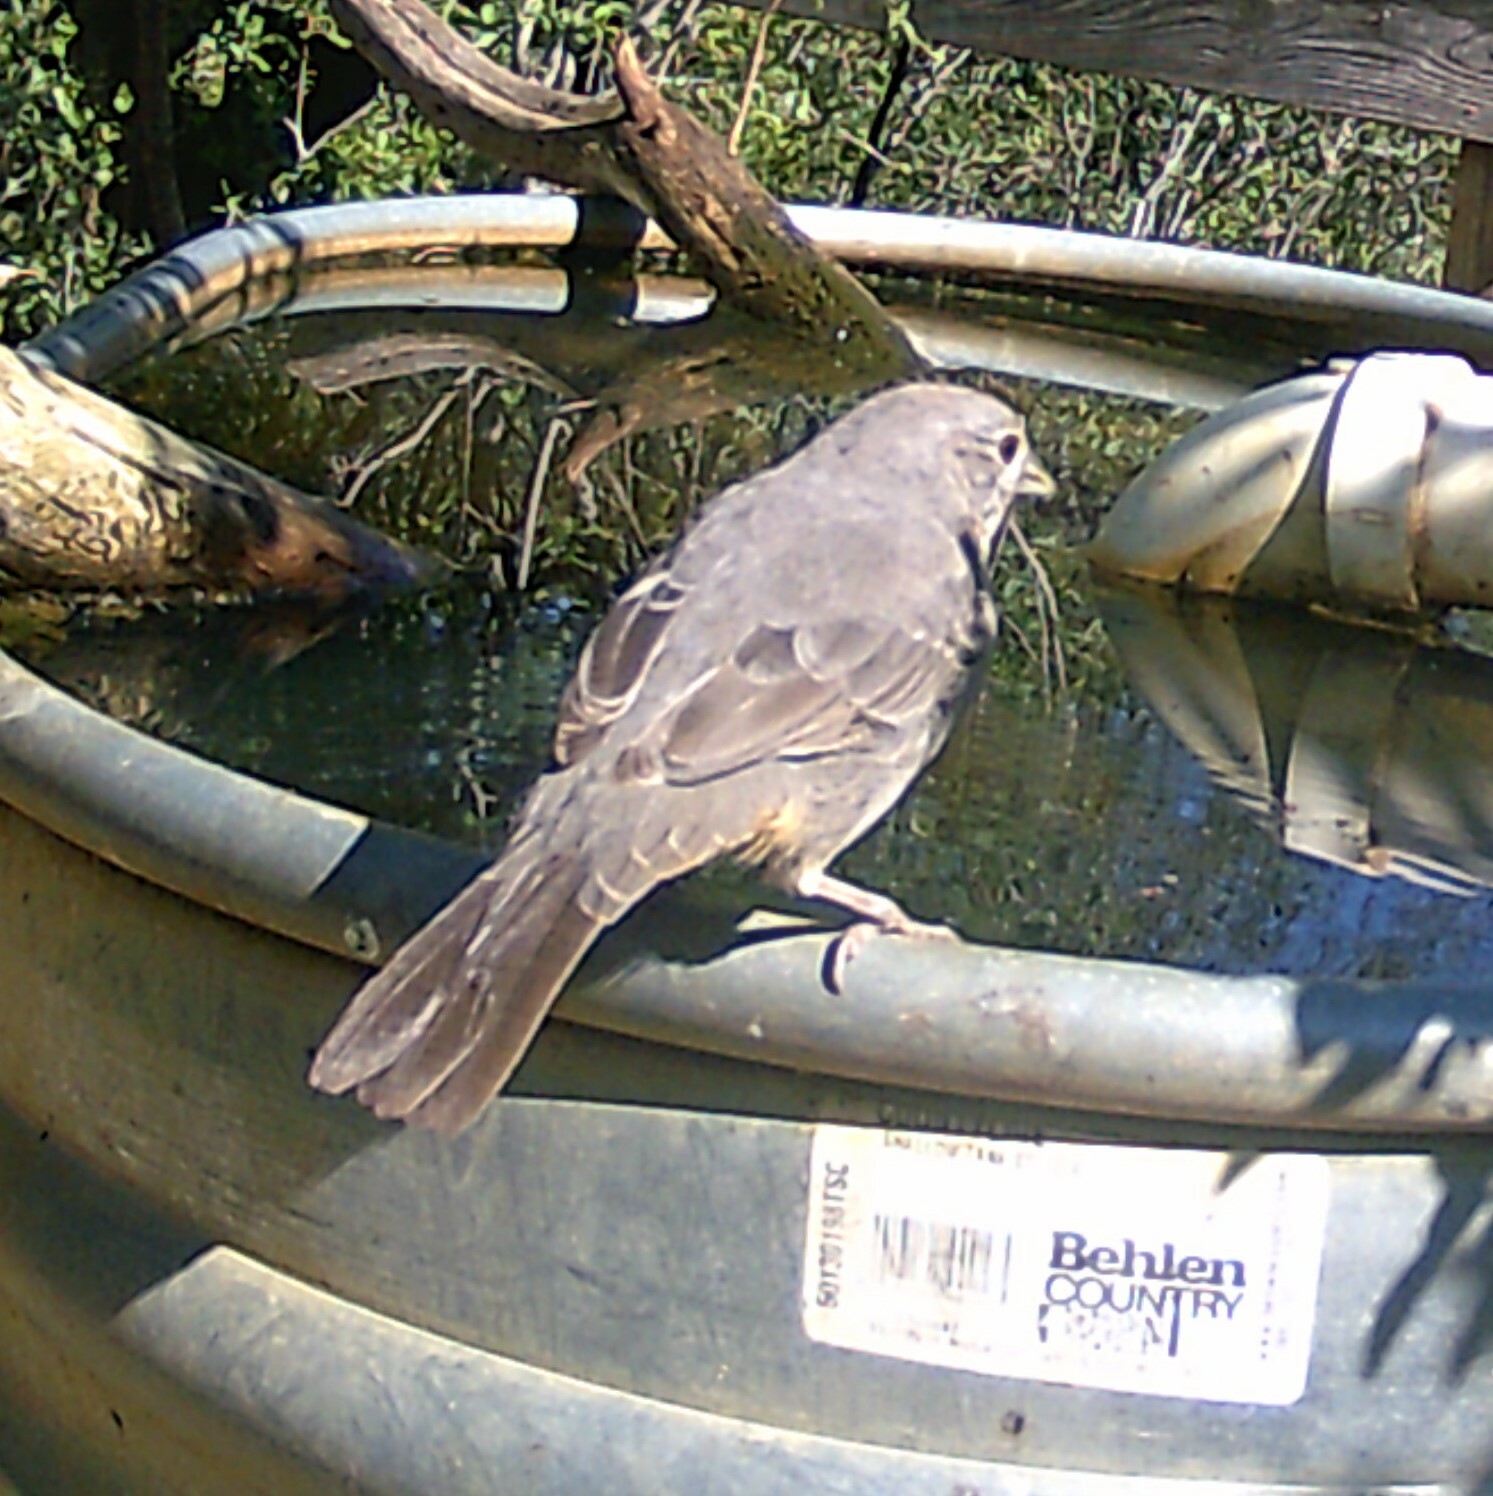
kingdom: Animalia
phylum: Chordata
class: Aves
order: Passeriformes
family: Passerellidae
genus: Melozone
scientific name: Melozone fusca
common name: Canyon towhee
